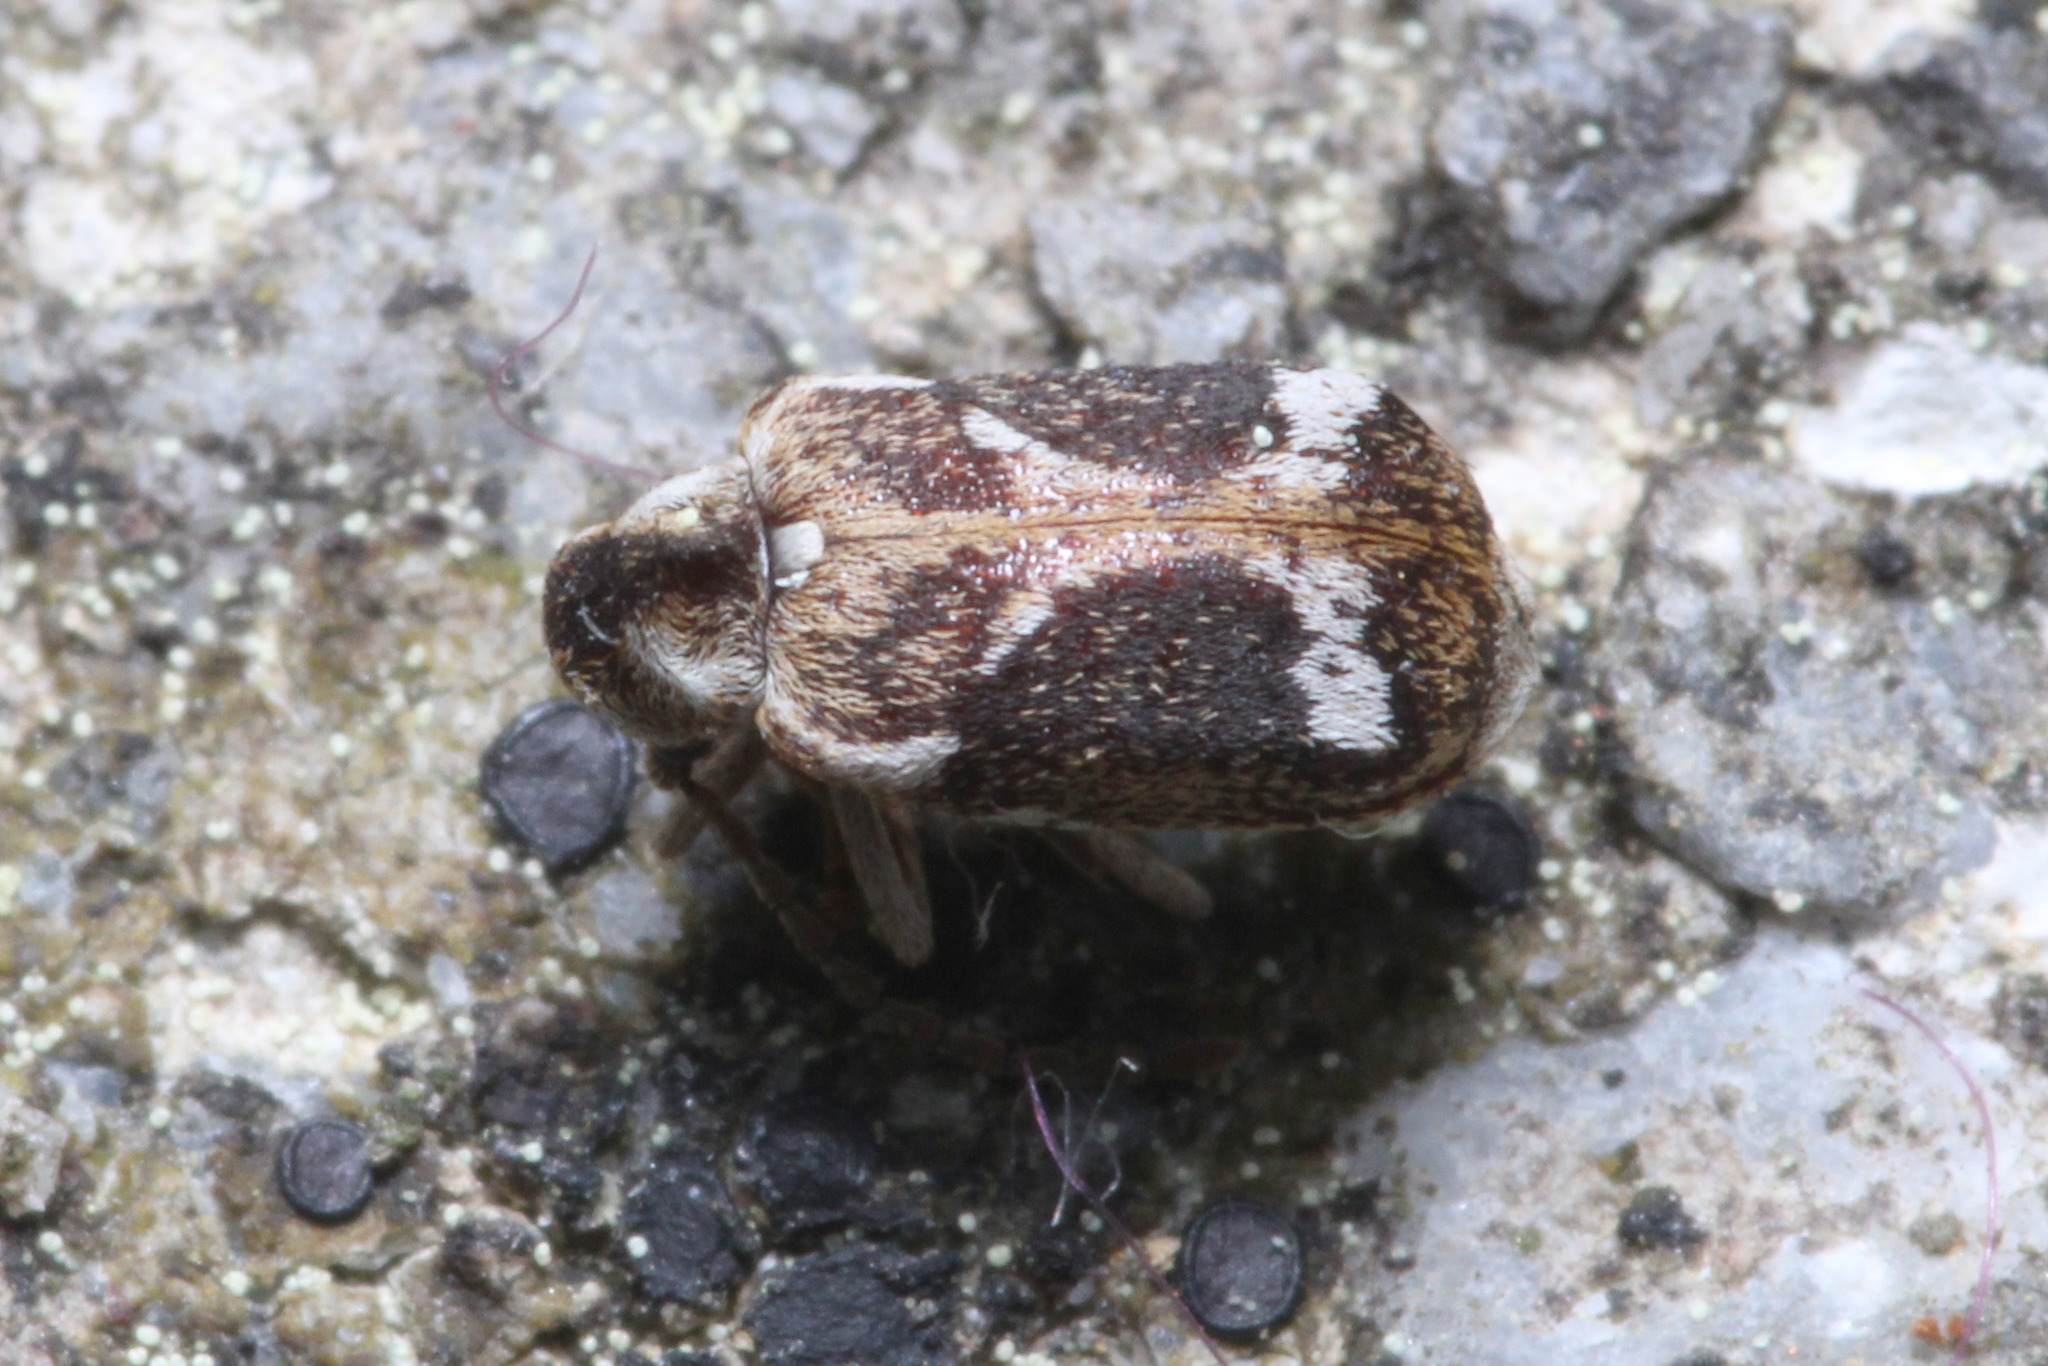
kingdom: Animalia
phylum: Arthropoda
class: Insecta
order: Coleoptera
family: Anobiidae
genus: Ptinomorphus
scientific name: Ptinomorphus imperialis
